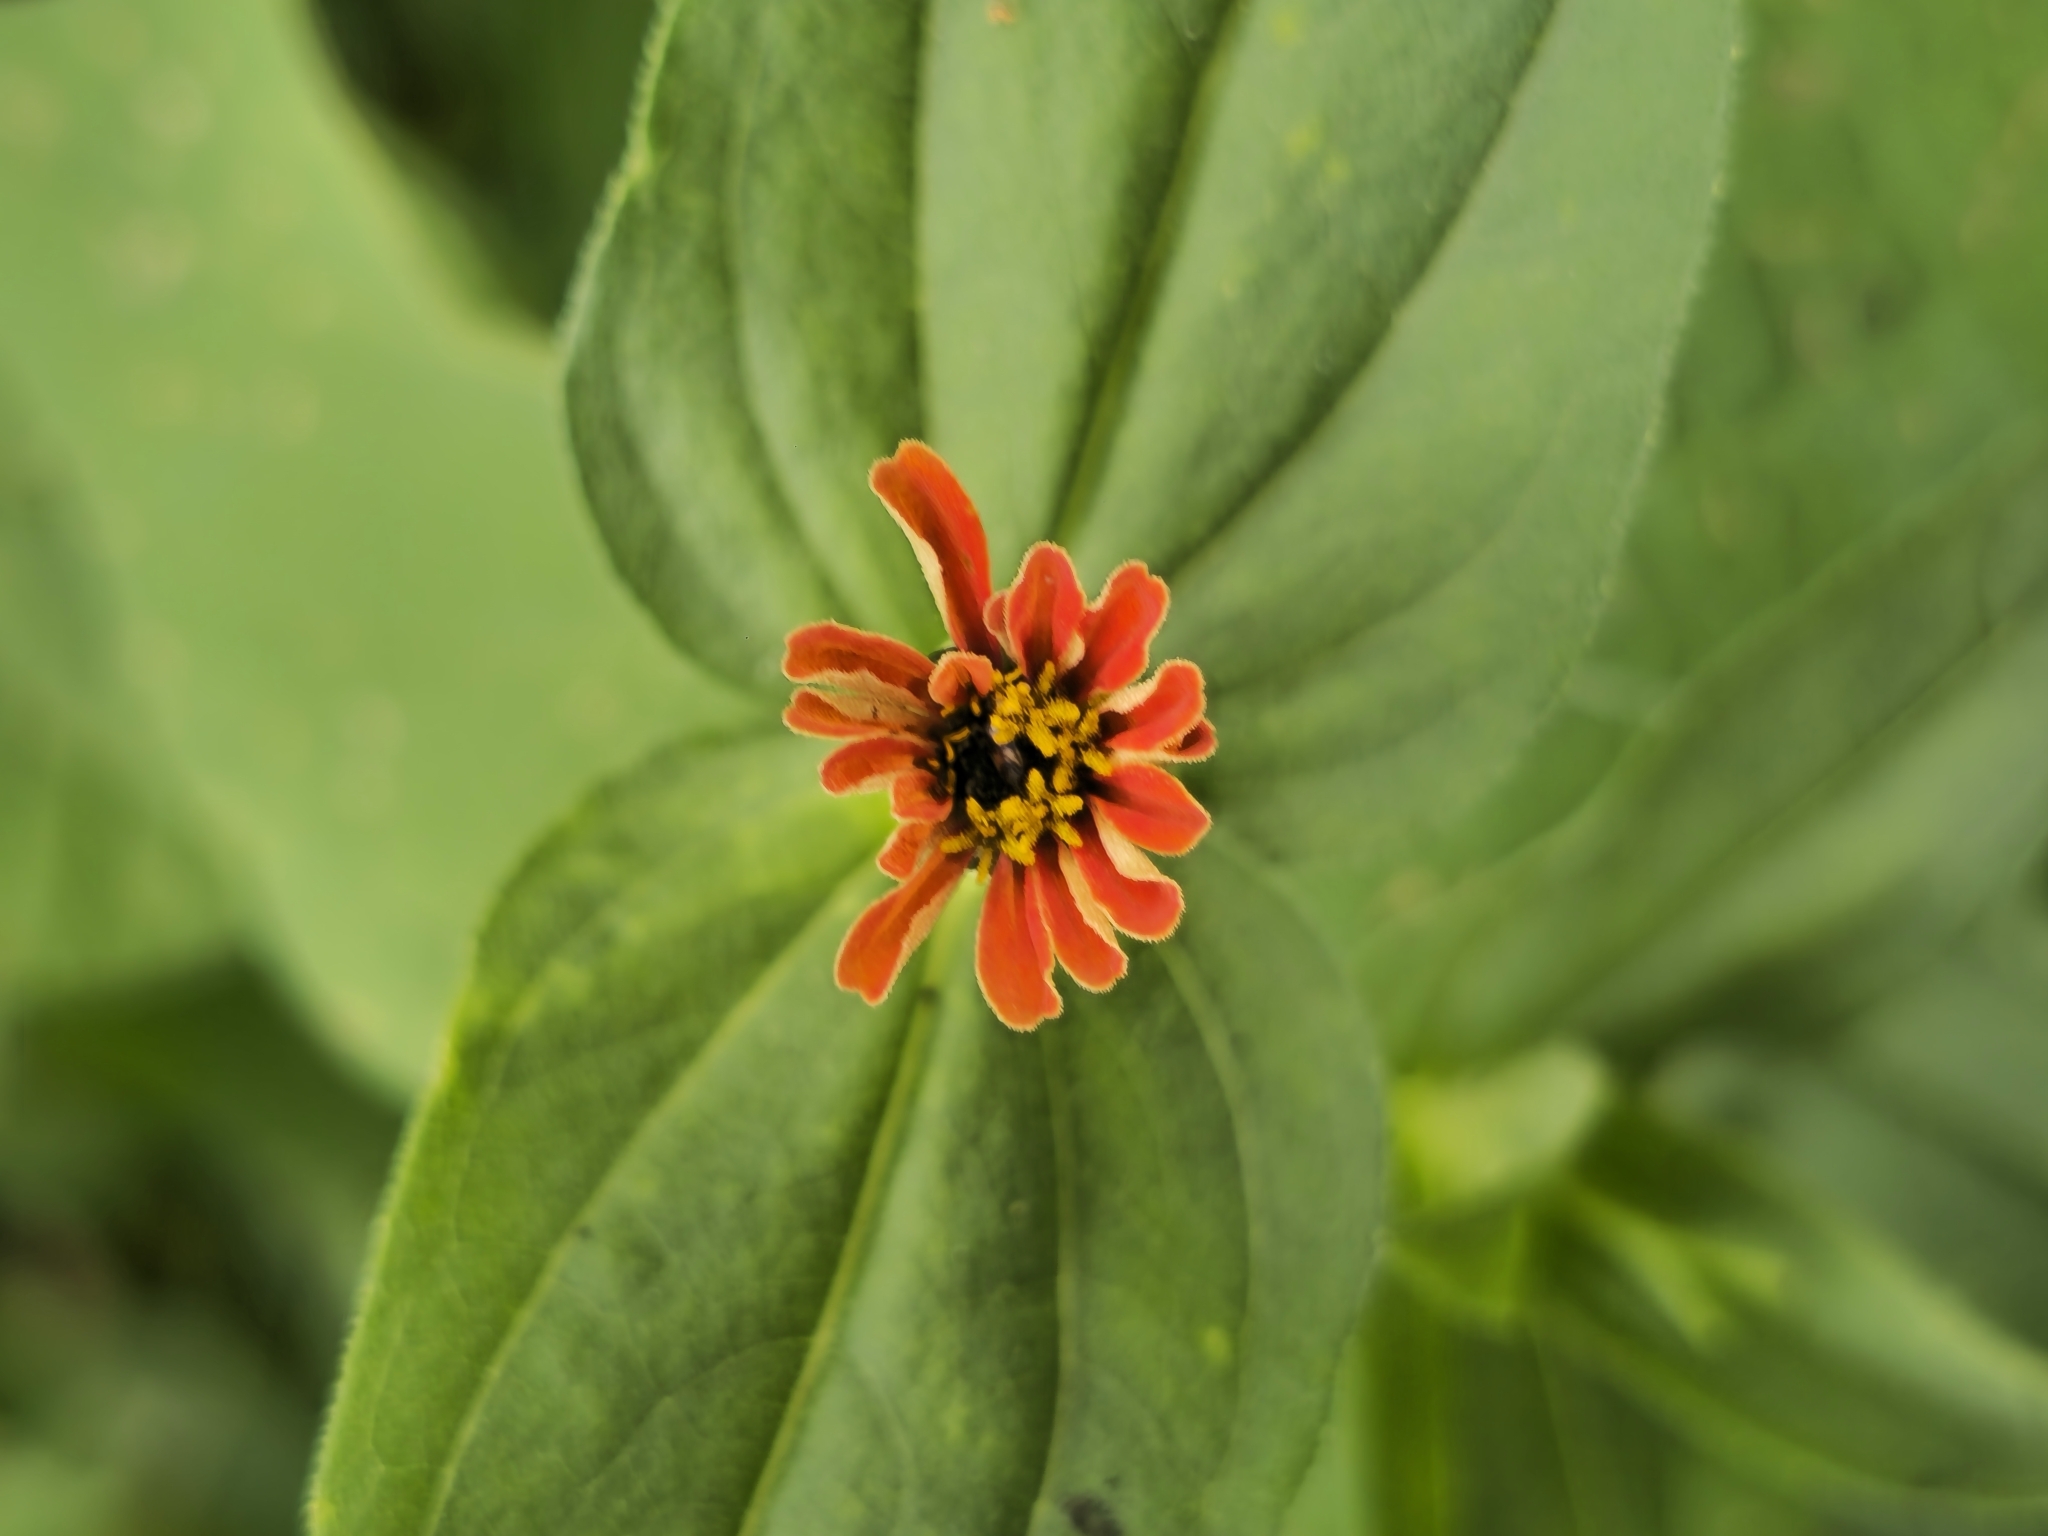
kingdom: Plantae
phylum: Tracheophyta
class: Magnoliopsida
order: Asterales
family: Asteraceae
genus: Zinnia
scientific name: Zinnia peruviana
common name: Peruvian zinnia
